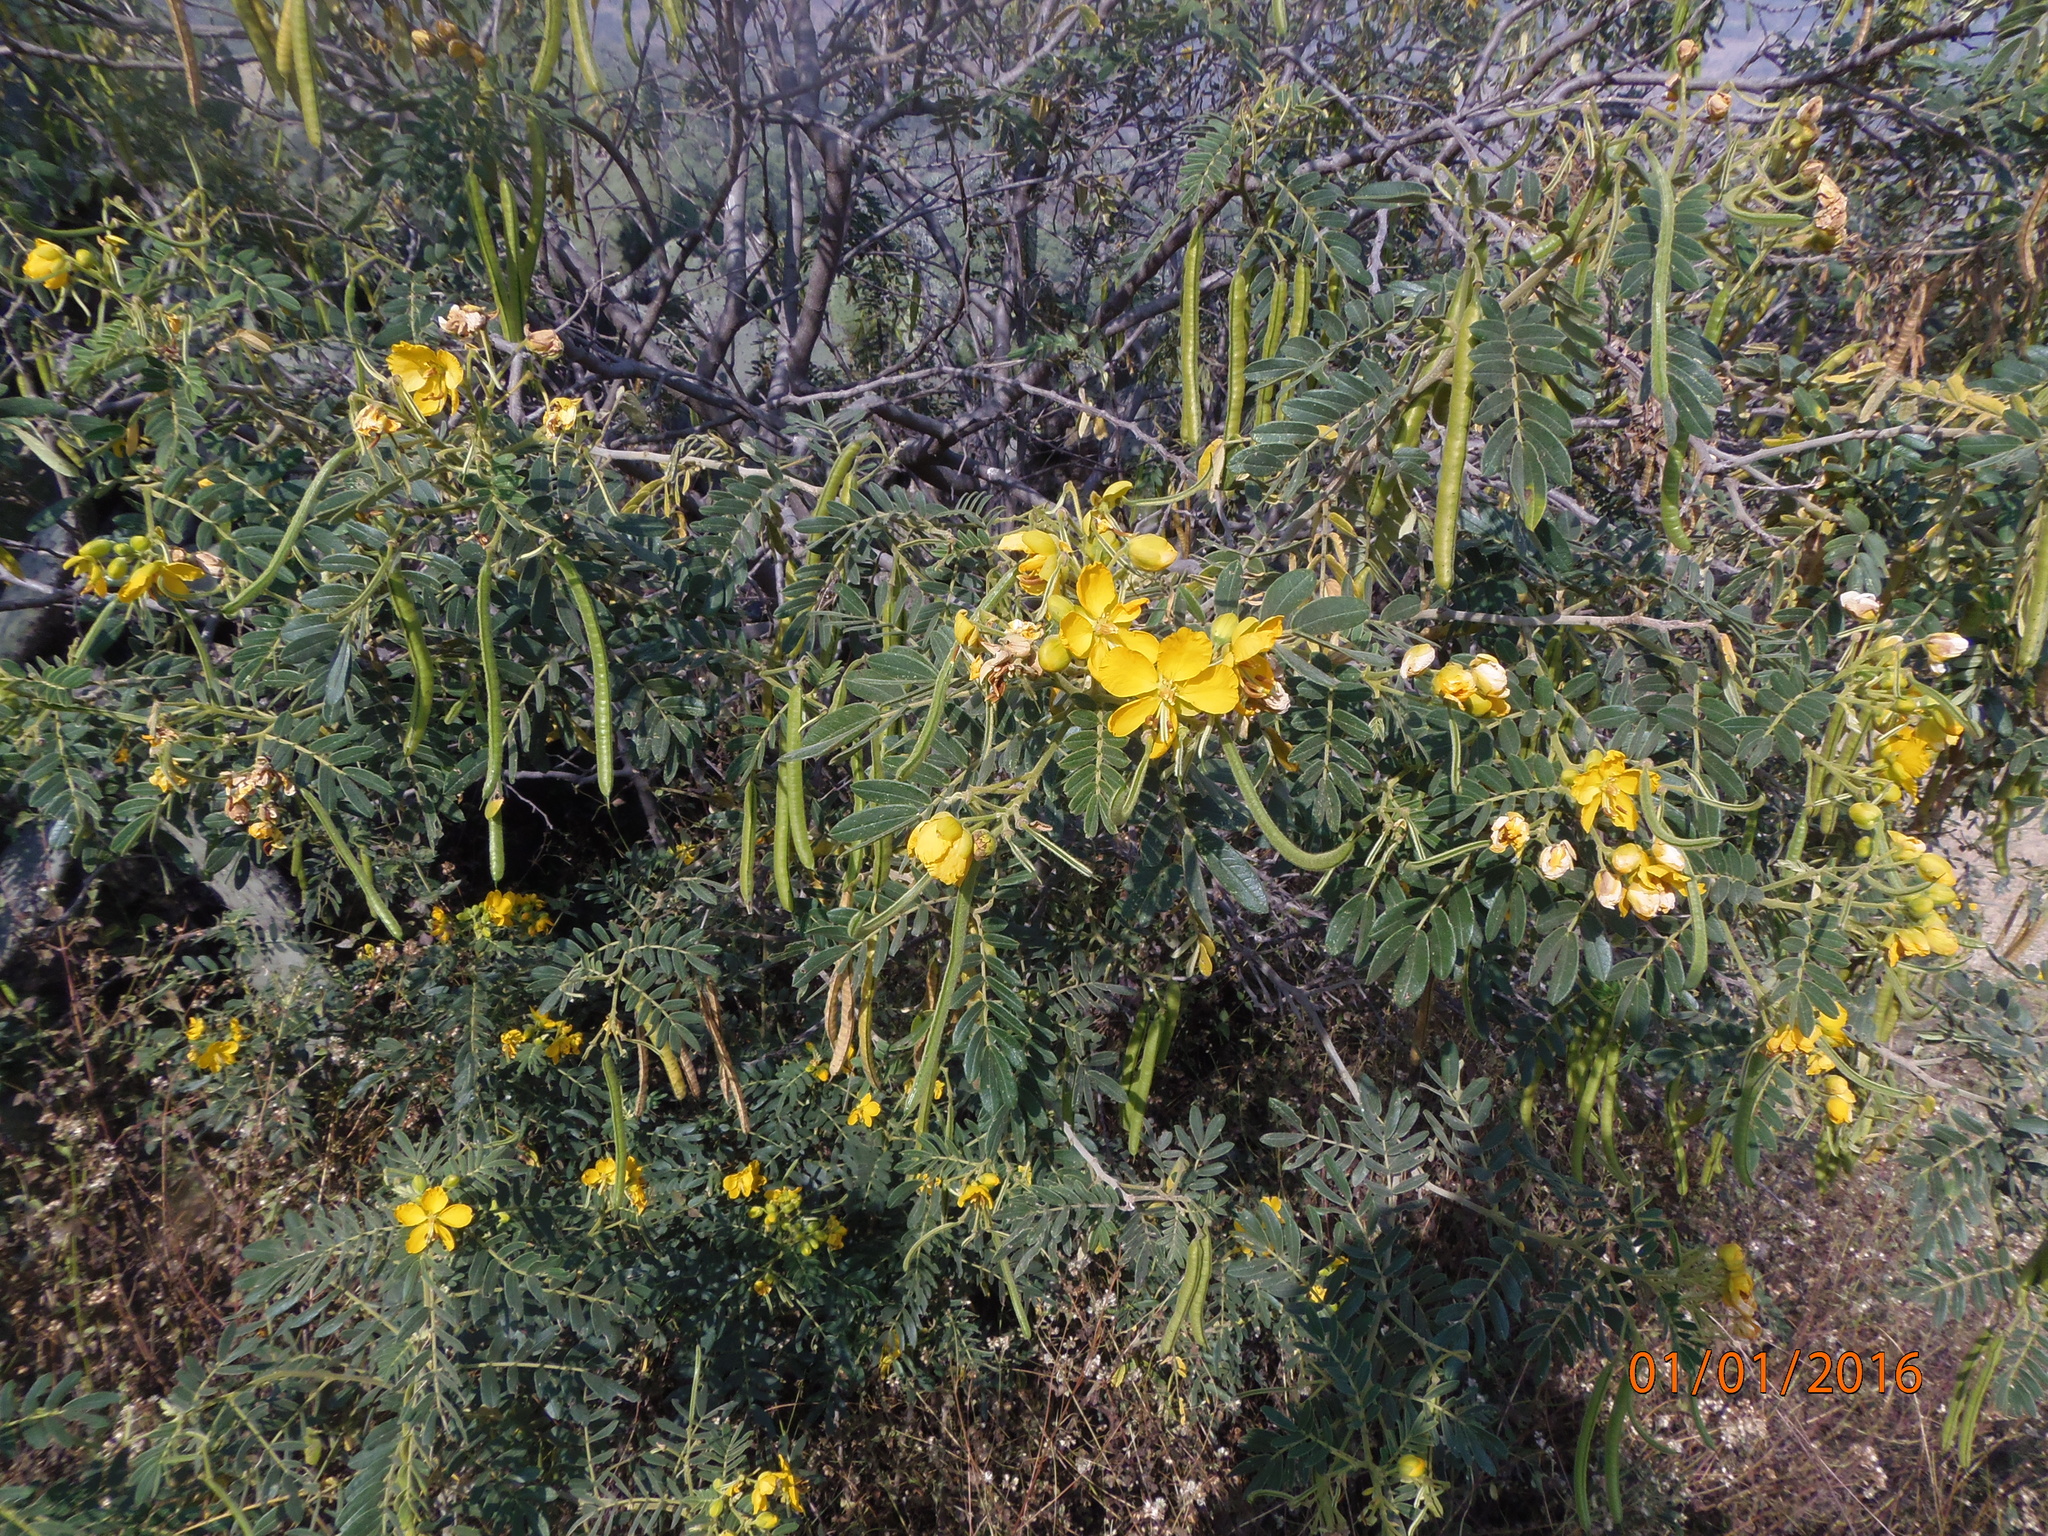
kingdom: Plantae
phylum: Tracheophyta
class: Magnoliopsida
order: Fabales
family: Fabaceae
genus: Senna
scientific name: Senna multiglandulosa
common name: Glandular senna
